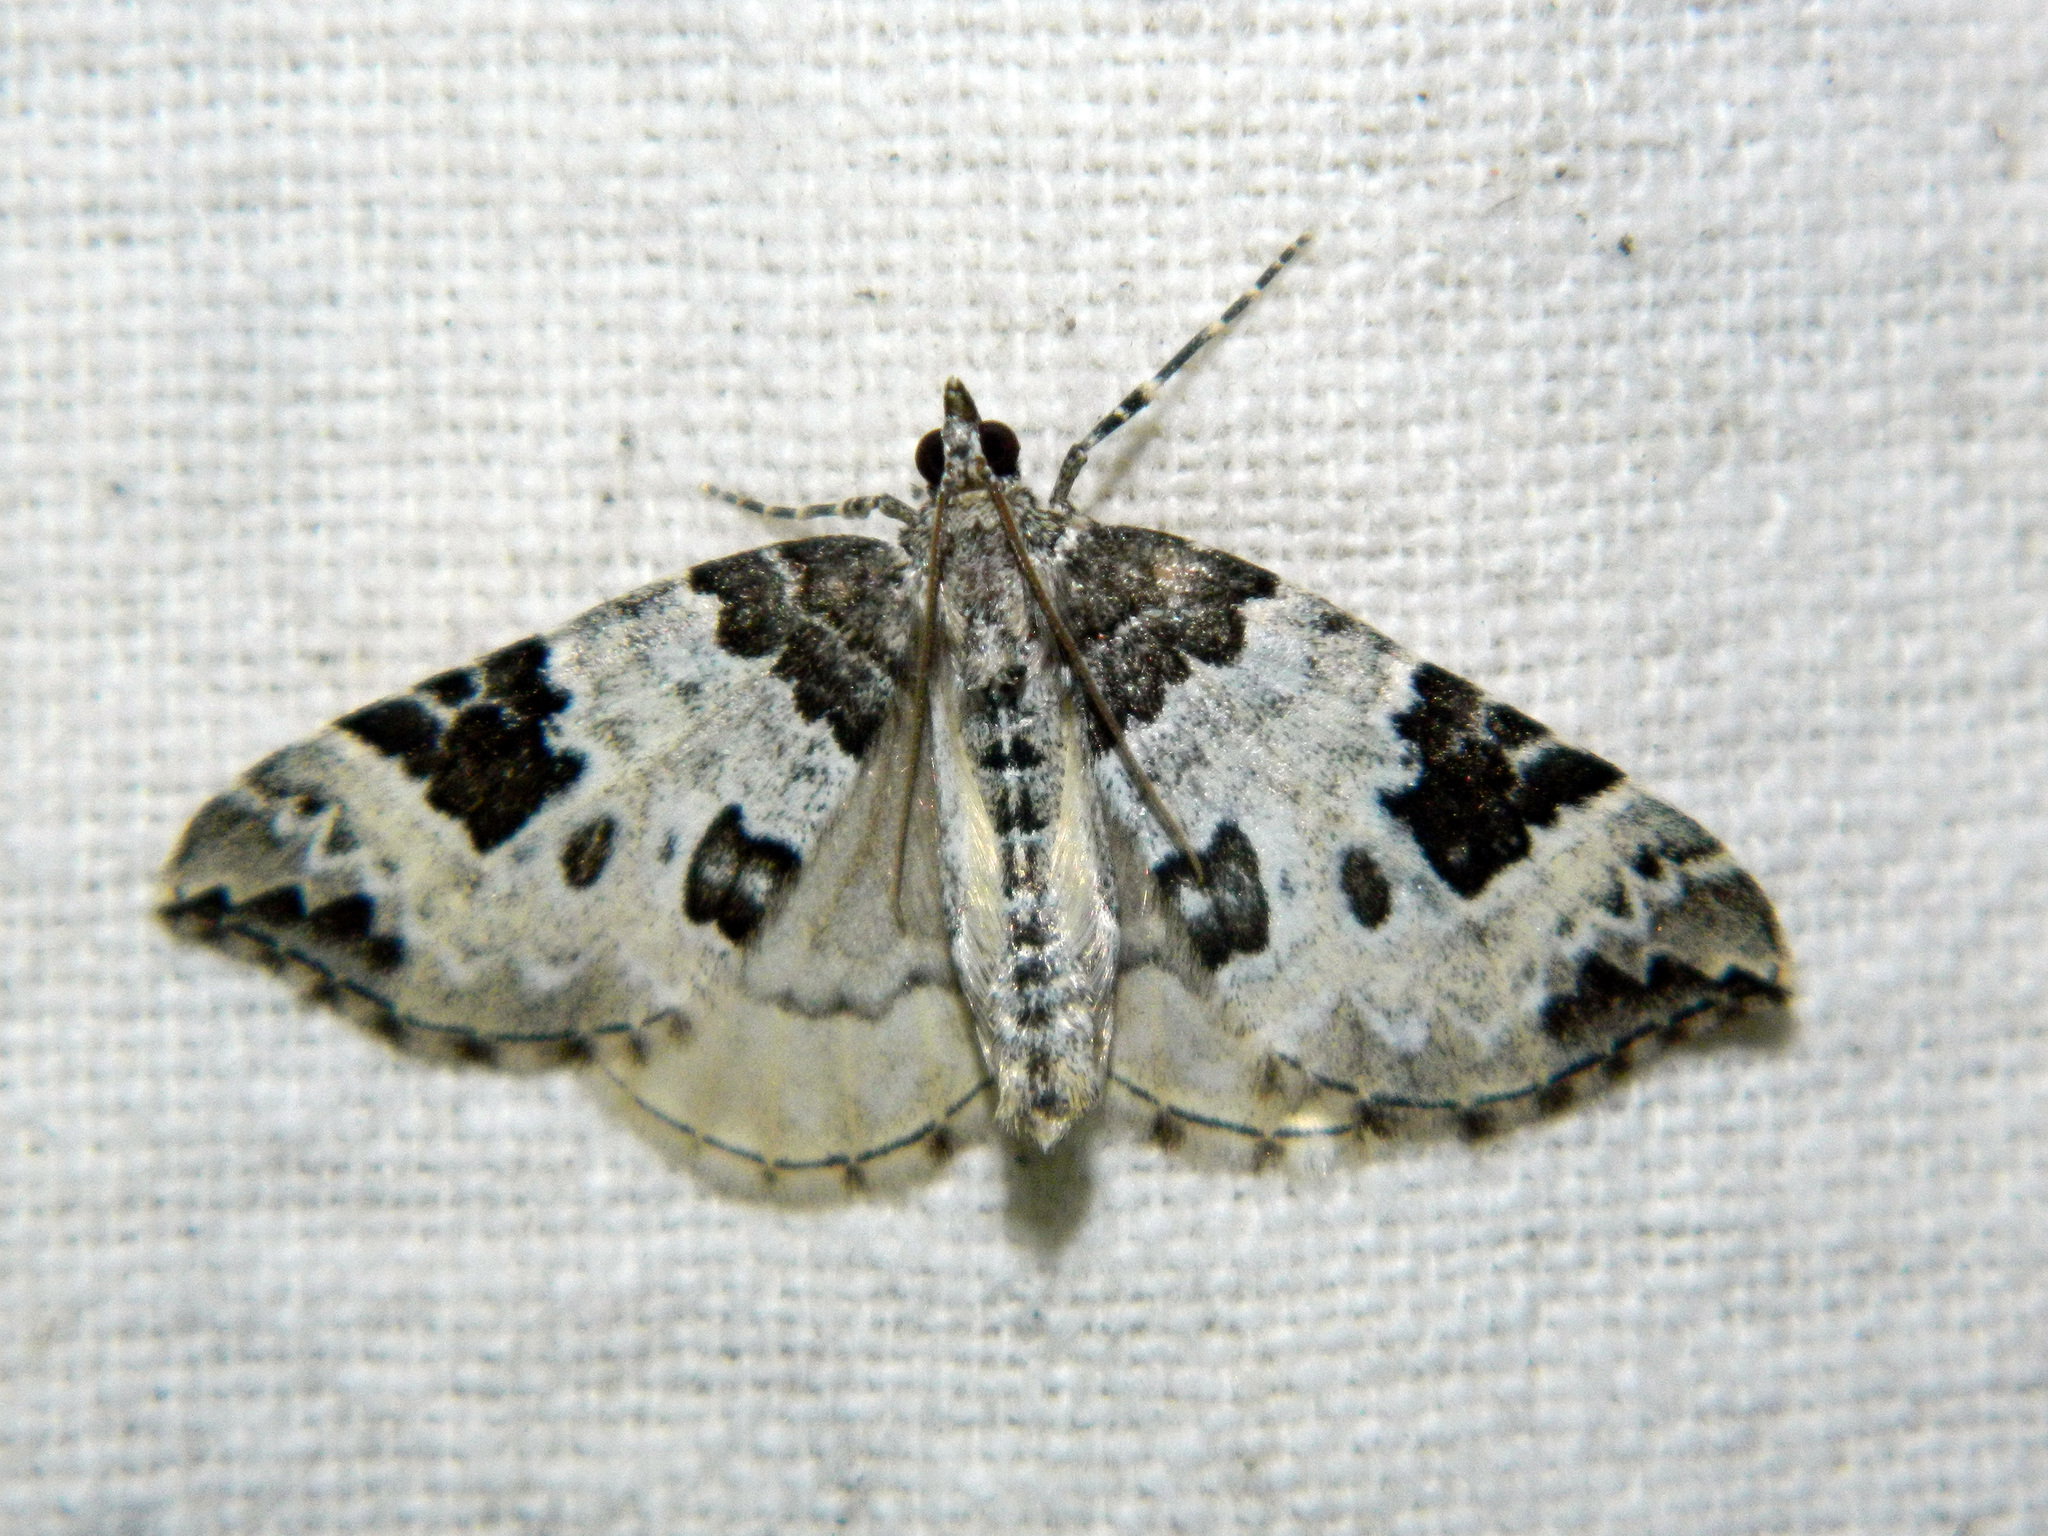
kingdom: Animalia
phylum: Arthropoda
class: Insecta
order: Lepidoptera
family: Geometridae
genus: Eulithis
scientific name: Eulithis explanata
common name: White eulithis
